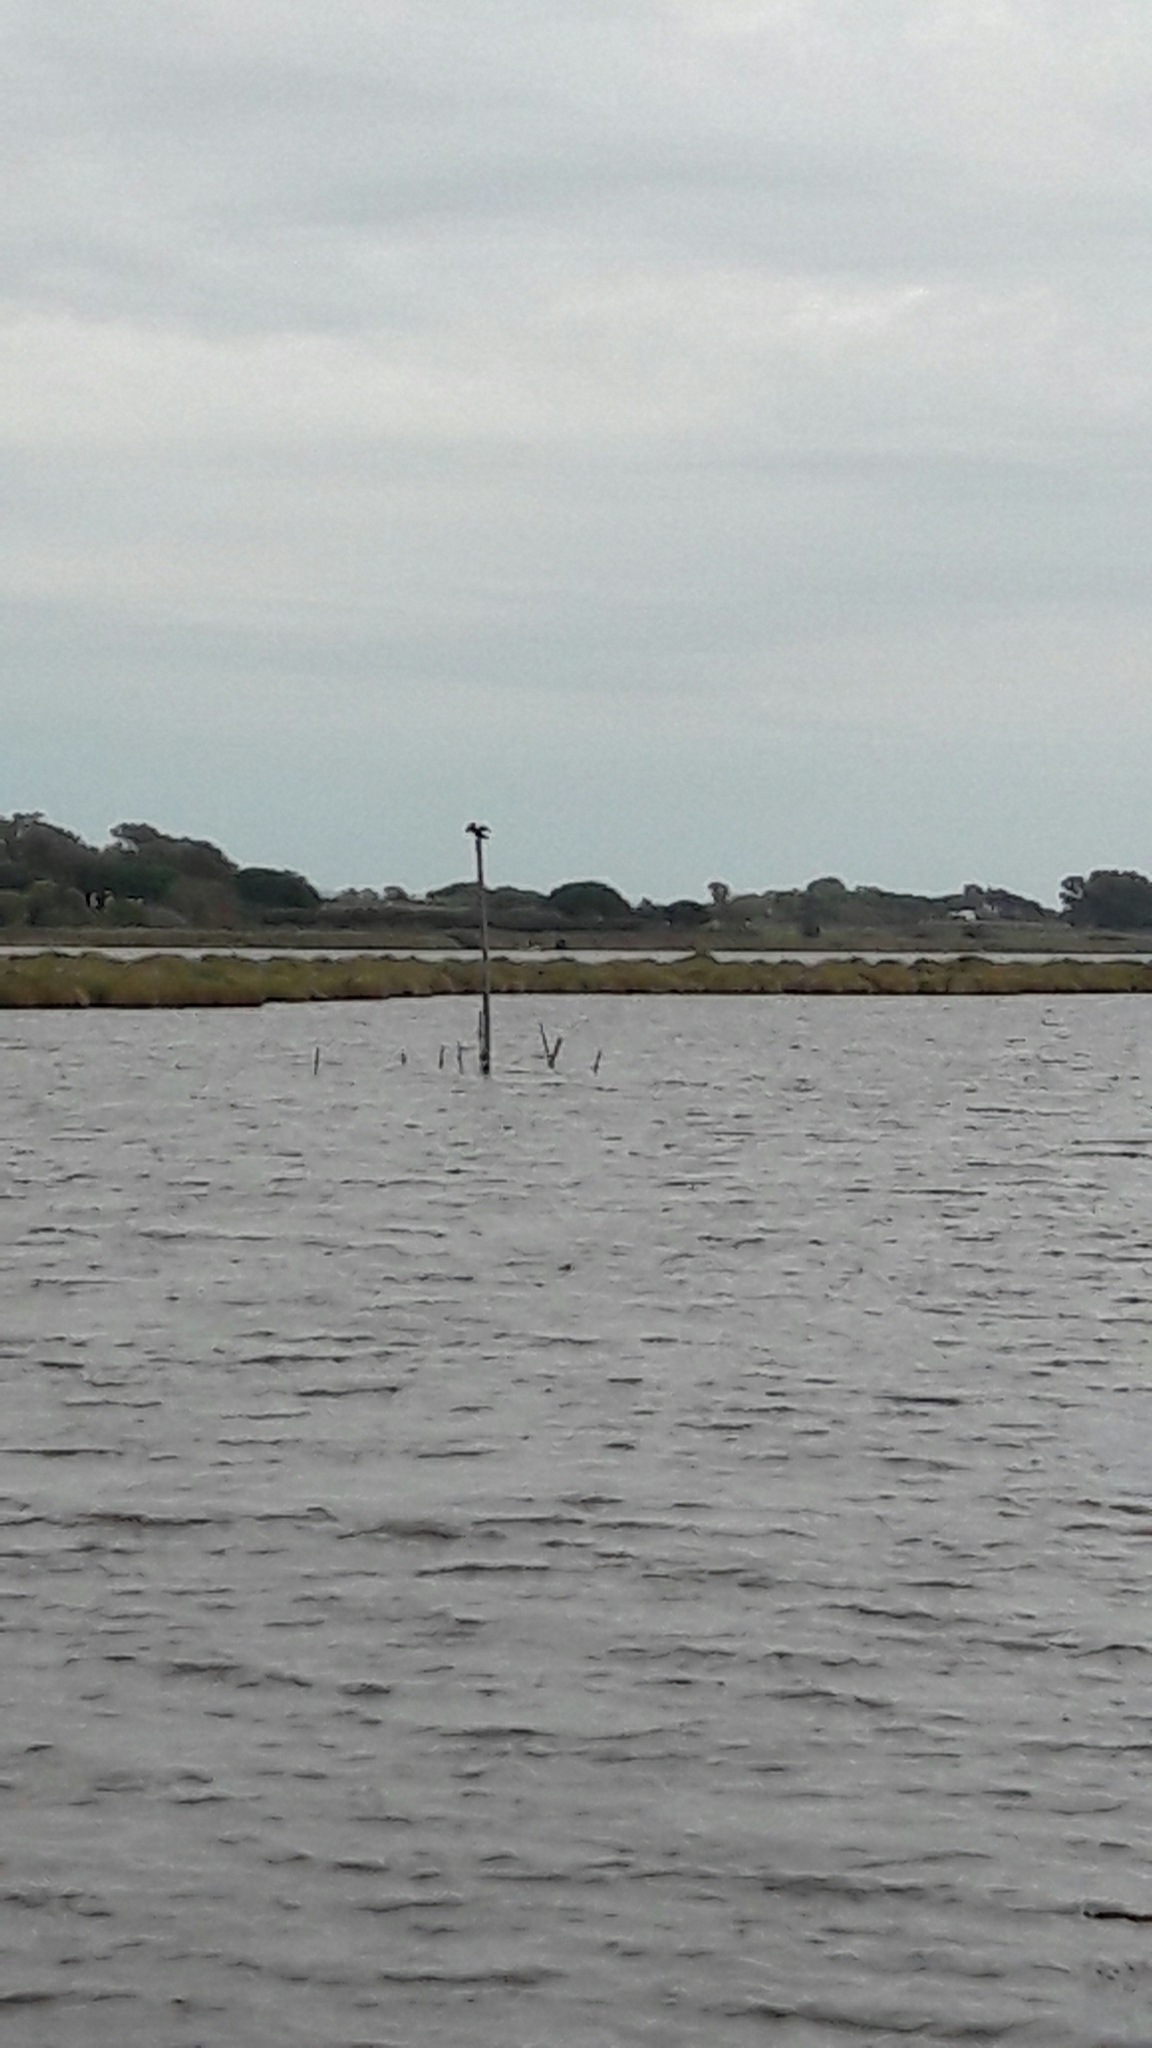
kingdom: Animalia
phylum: Chordata
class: Aves
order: Suliformes
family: Phalacrocoracidae
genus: Phalacrocorax
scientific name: Phalacrocorax carbo
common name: Great cormorant
